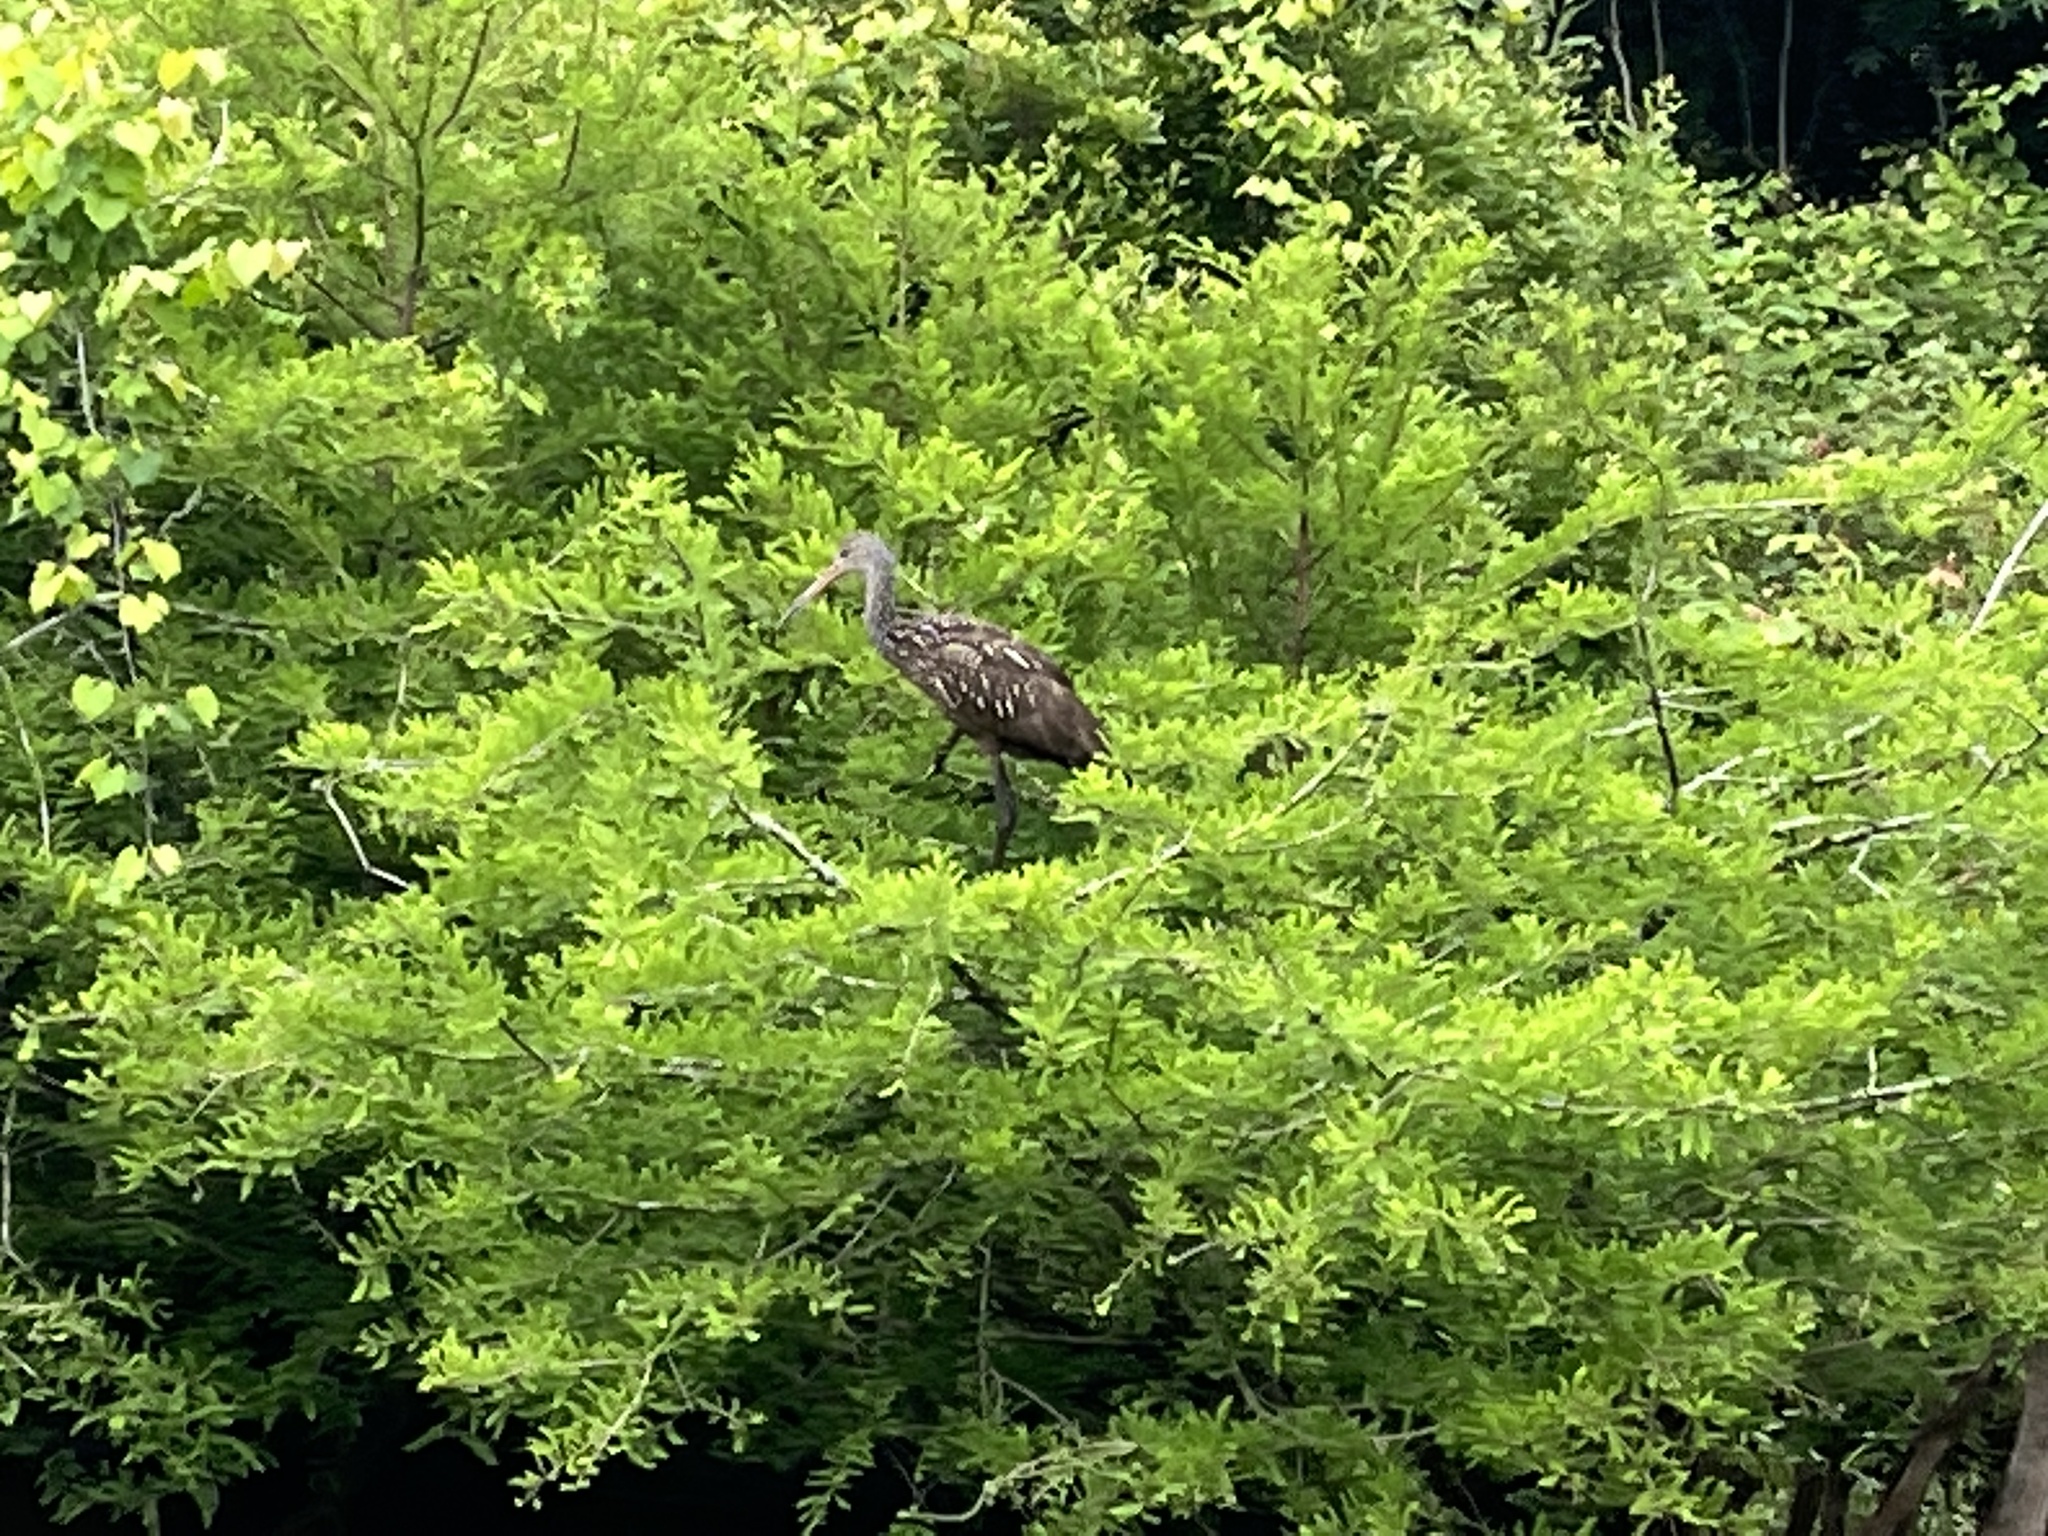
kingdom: Animalia
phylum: Chordata
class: Aves
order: Gruiformes
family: Aramidae
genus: Aramus
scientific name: Aramus guarauna
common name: Limpkin
